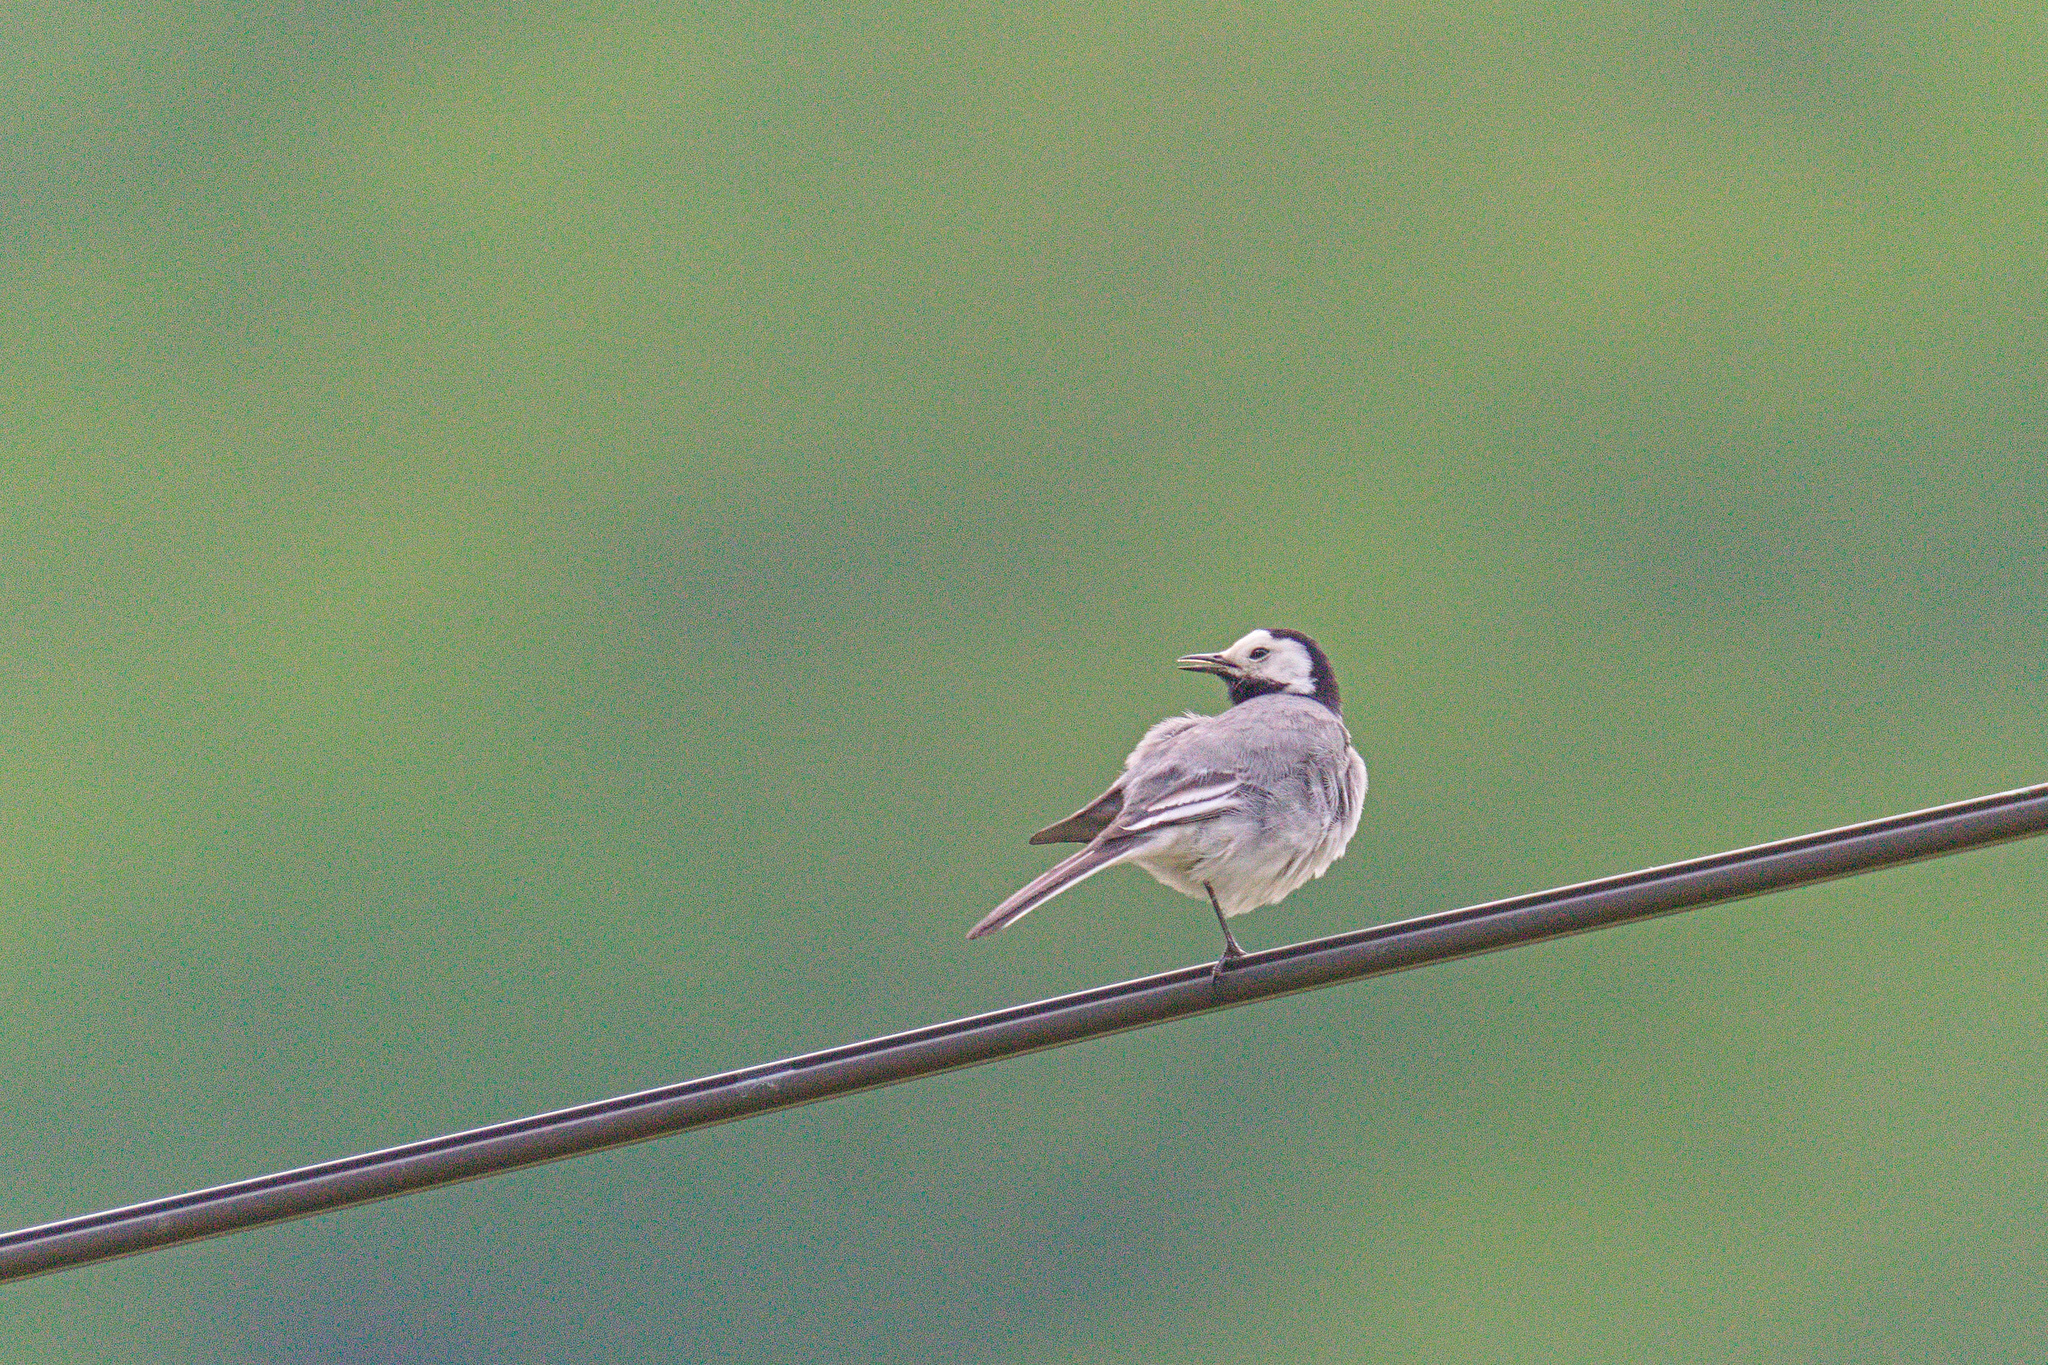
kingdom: Animalia
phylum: Chordata
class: Aves
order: Passeriformes
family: Motacillidae
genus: Motacilla
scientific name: Motacilla alba
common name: White wagtail
